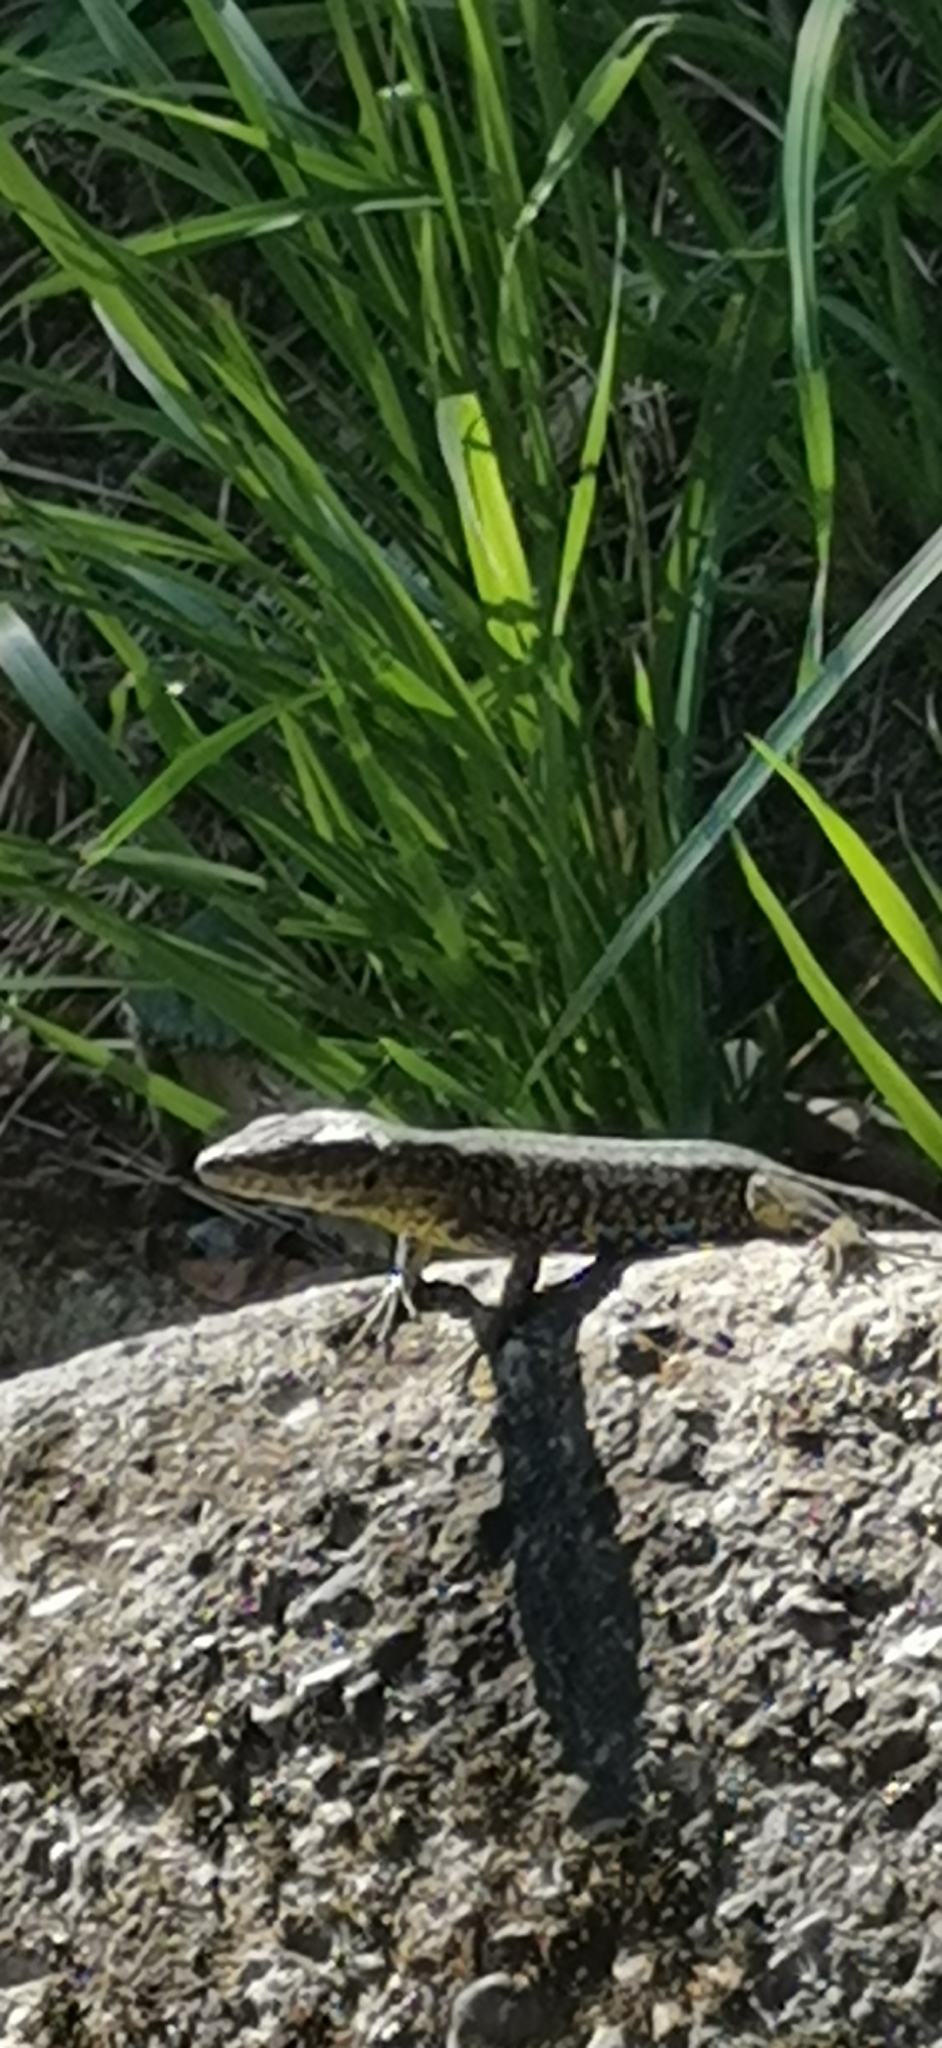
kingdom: Animalia
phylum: Chordata
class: Squamata
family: Lacertidae
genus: Podarcis
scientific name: Podarcis muralis
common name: Common wall lizard
